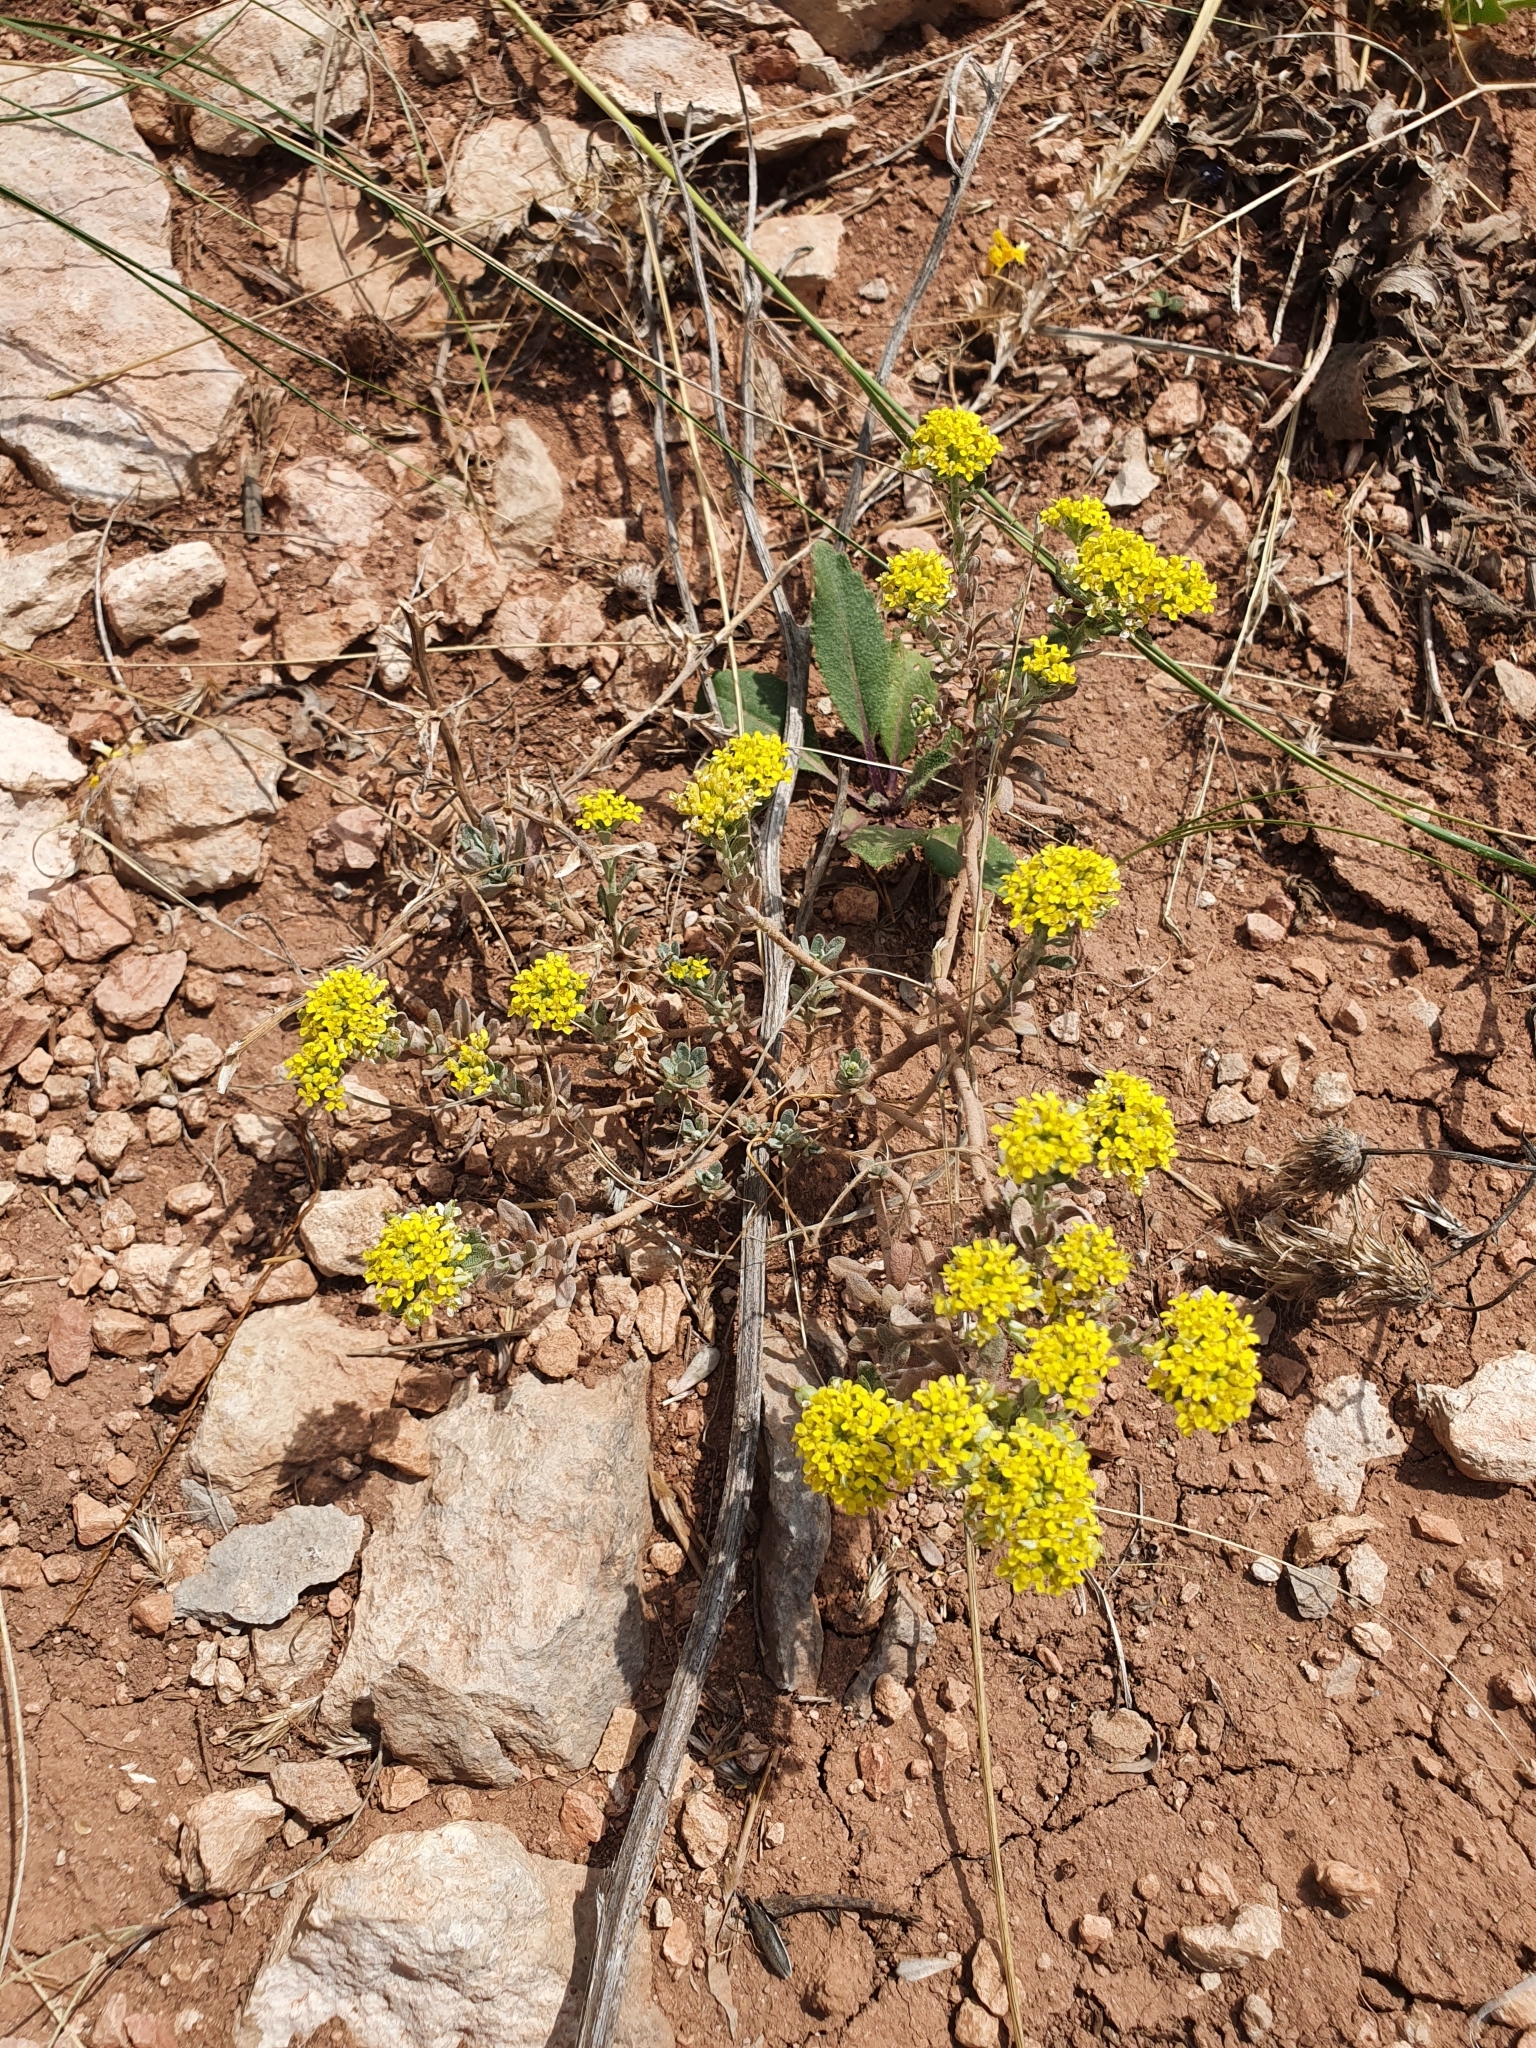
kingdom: Plantae
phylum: Tracheophyta
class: Magnoliopsida
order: Brassicales
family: Brassicaceae
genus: Odontarrhena
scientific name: Odontarrhena tortuosa
